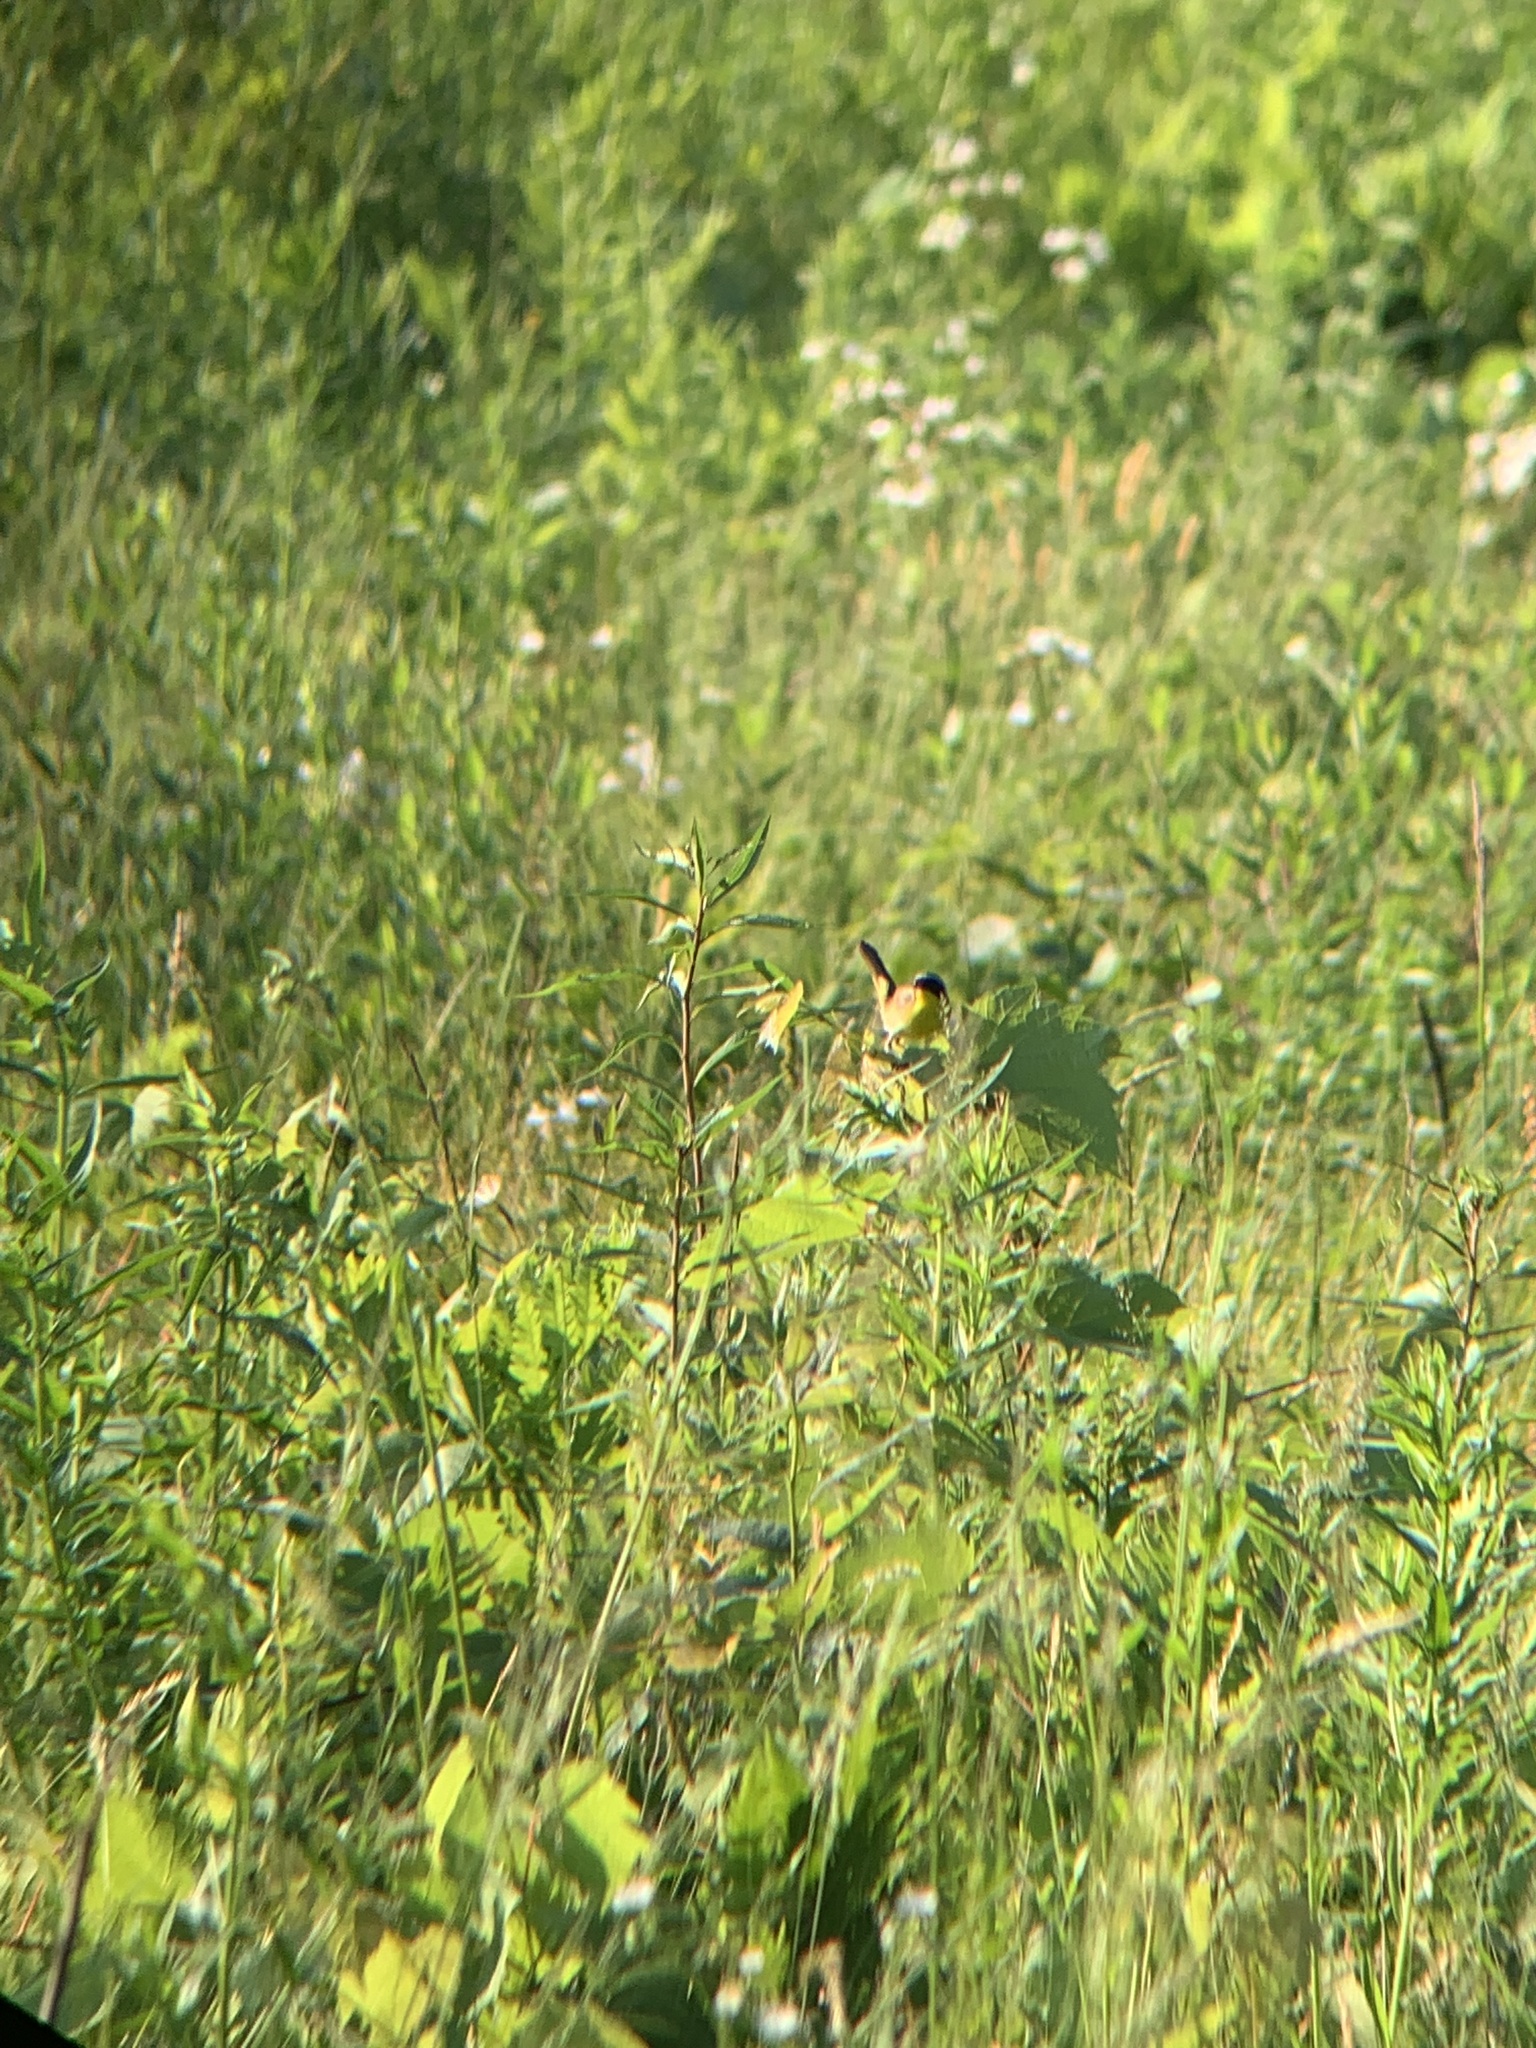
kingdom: Animalia
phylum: Chordata
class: Aves
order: Passeriformes
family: Parulidae
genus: Geothlypis
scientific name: Geothlypis trichas
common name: Common yellowthroat
